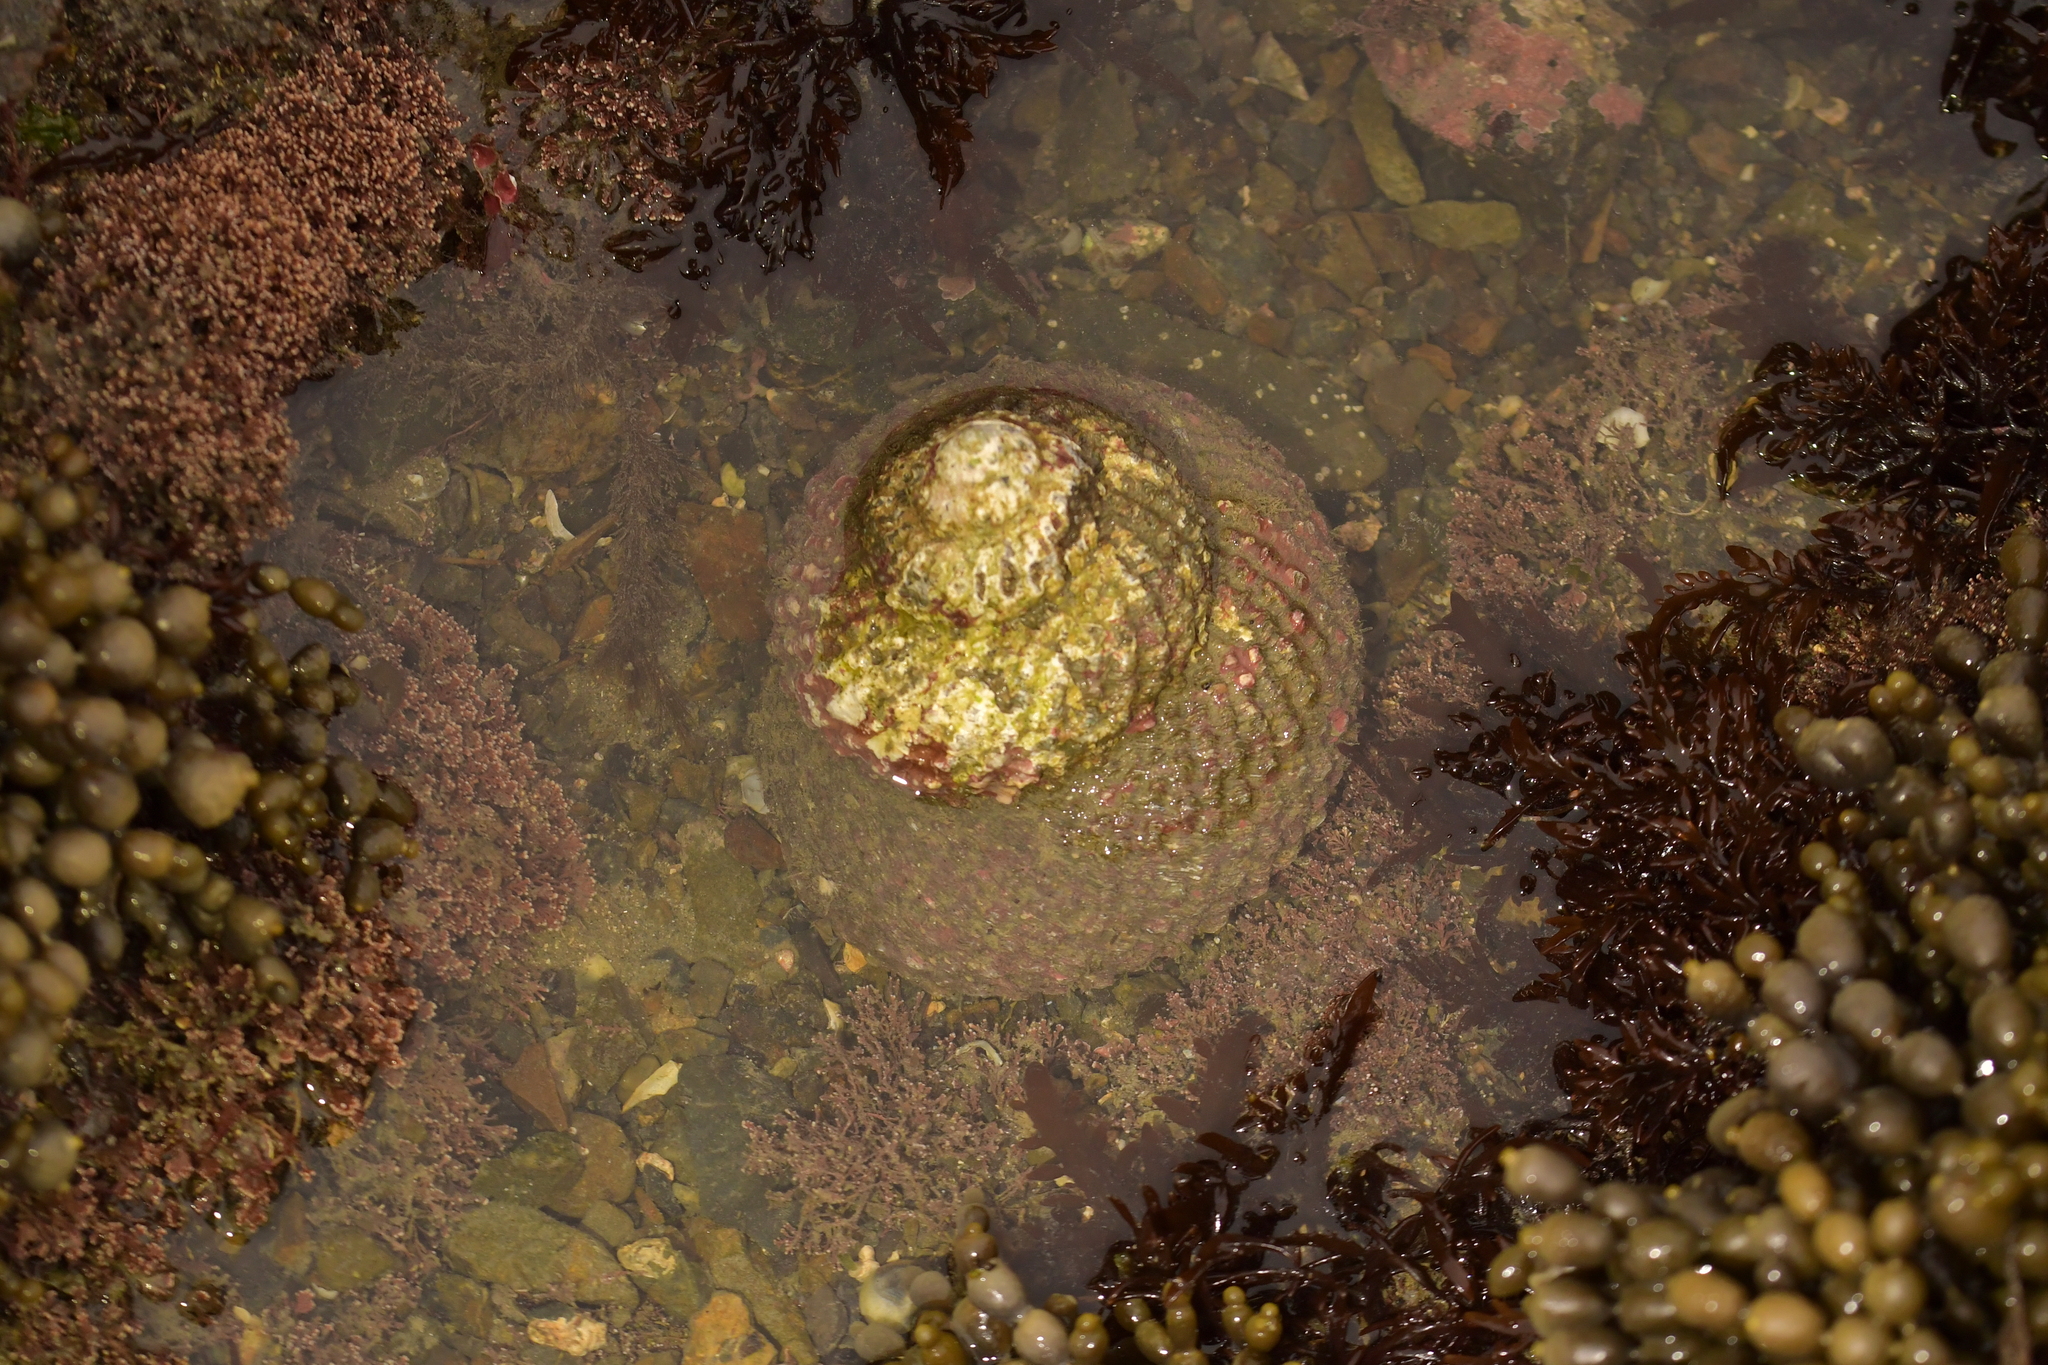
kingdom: Animalia
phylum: Mollusca
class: Gastropoda
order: Trochida
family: Turbinidae
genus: Cookia
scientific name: Cookia sulcata
